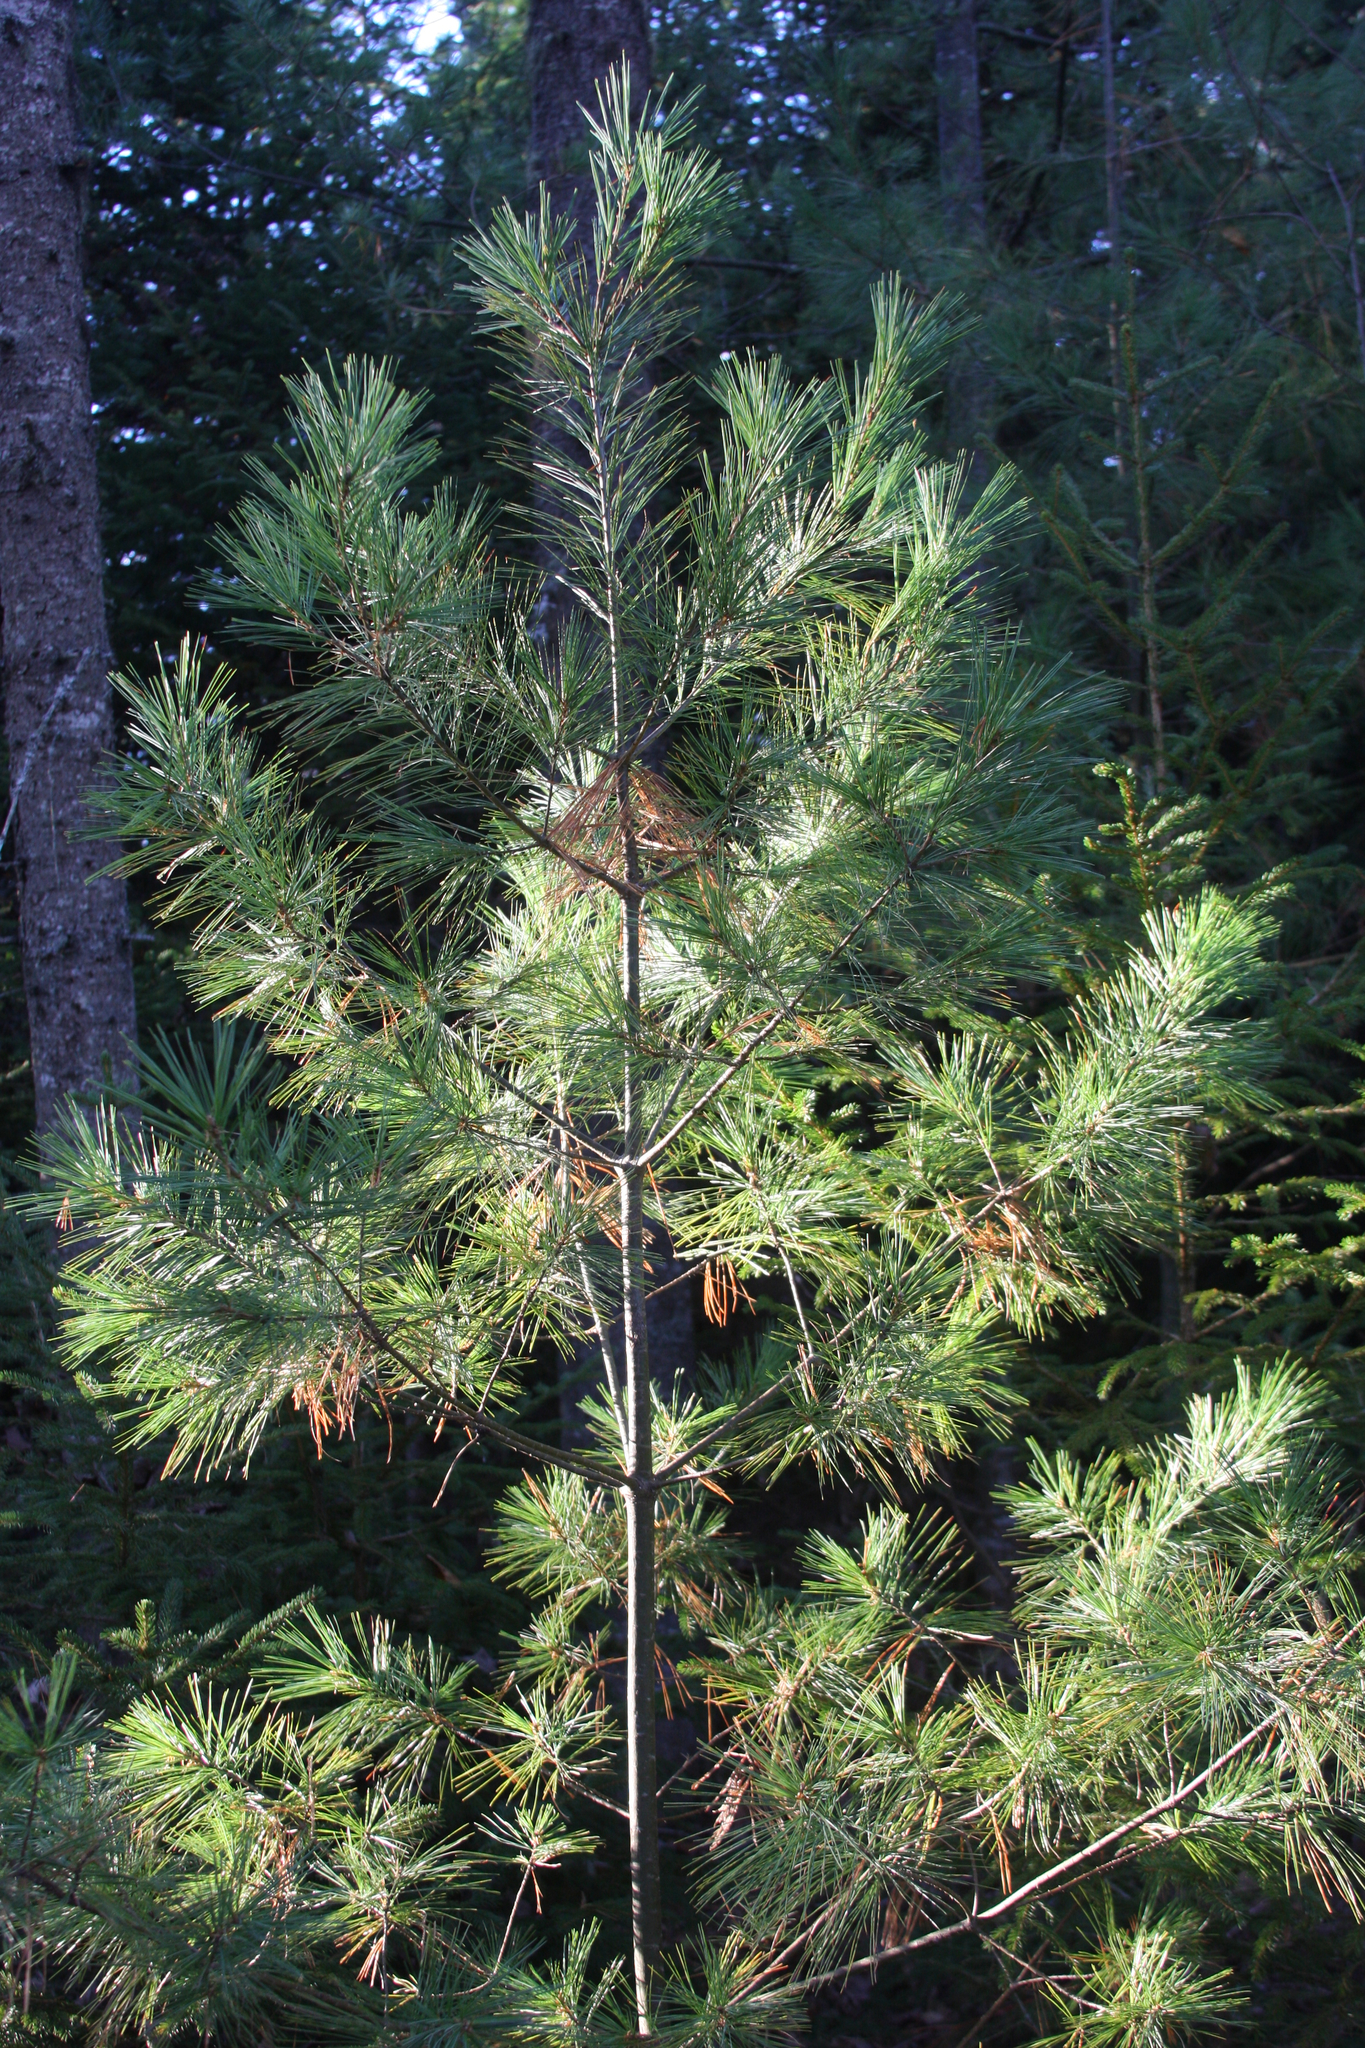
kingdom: Plantae
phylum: Tracheophyta
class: Pinopsida
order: Pinales
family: Pinaceae
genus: Pinus
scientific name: Pinus strobus
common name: Weymouth pine
